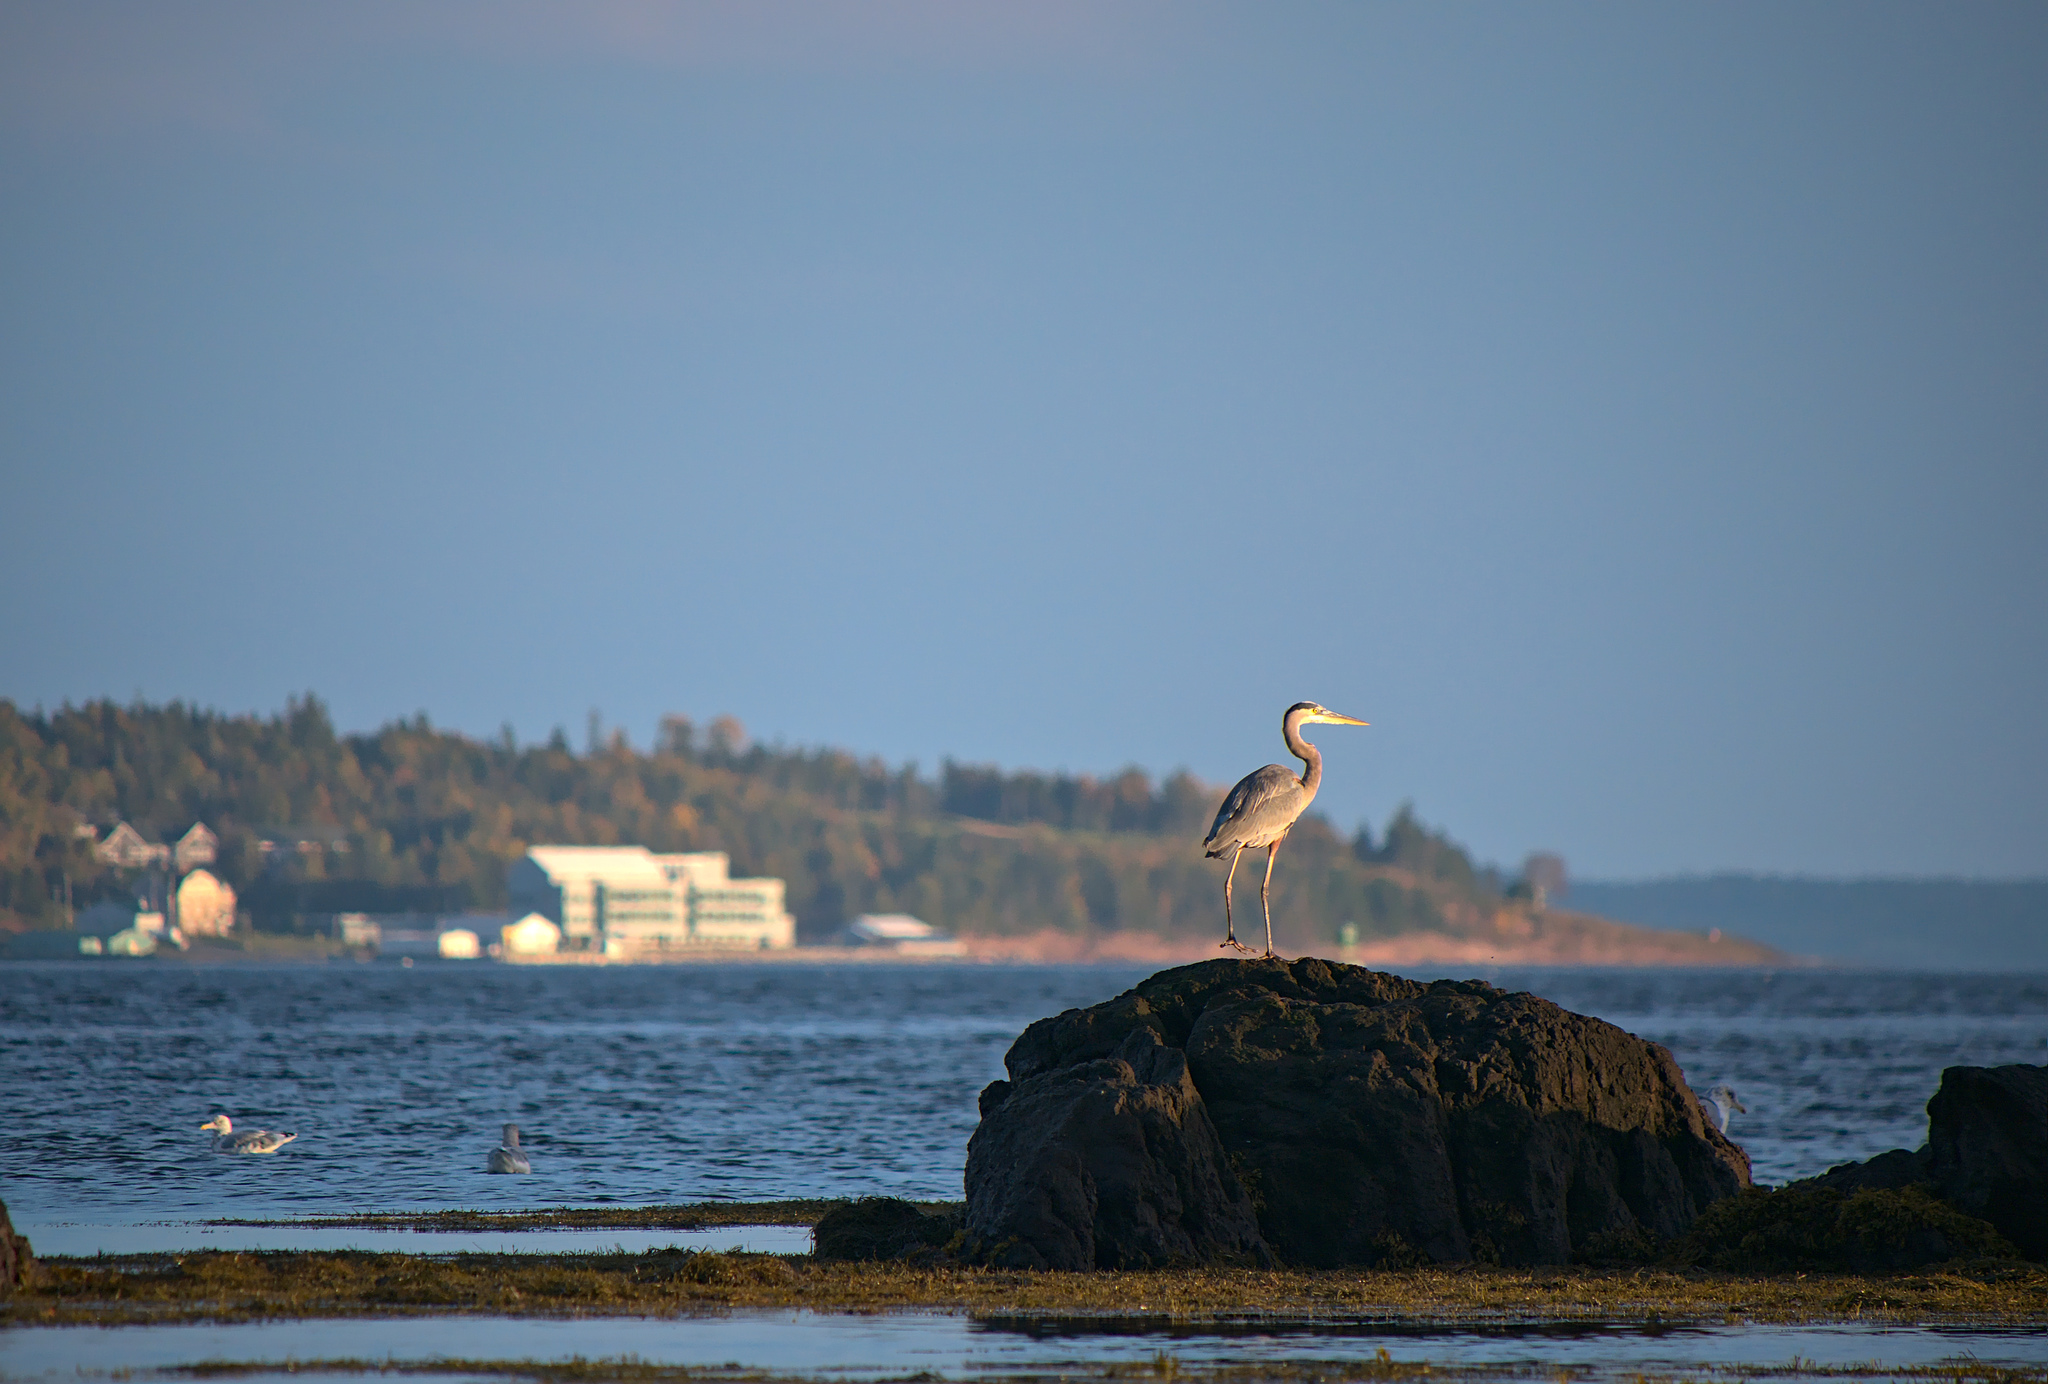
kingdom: Animalia
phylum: Chordata
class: Aves
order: Pelecaniformes
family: Ardeidae
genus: Ardea
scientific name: Ardea herodias
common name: Great blue heron
